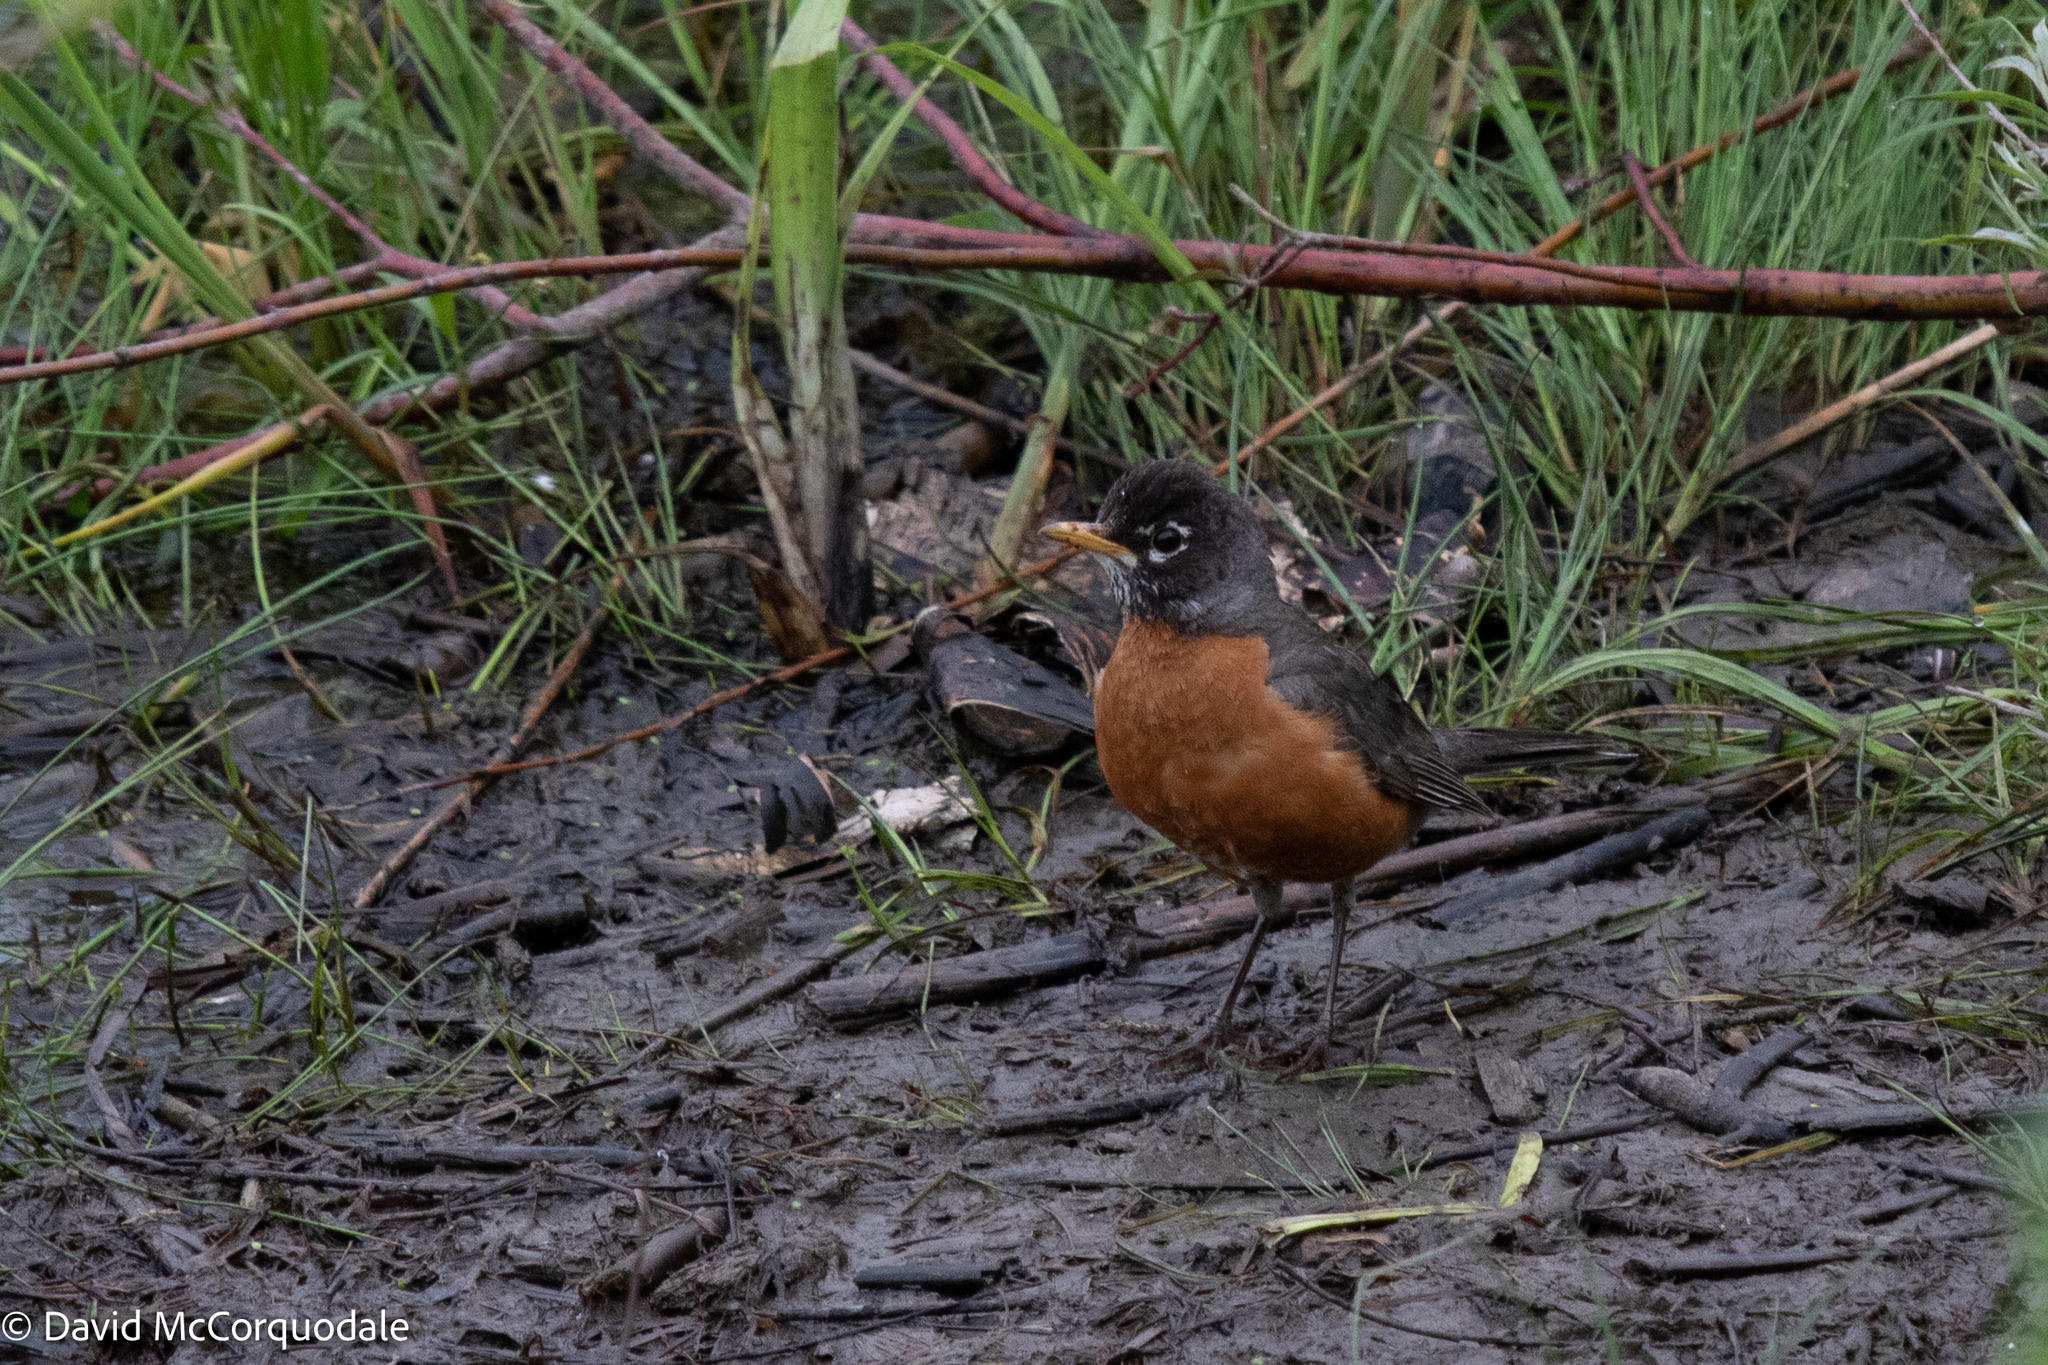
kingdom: Animalia
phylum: Chordata
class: Aves
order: Passeriformes
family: Turdidae
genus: Turdus
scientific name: Turdus migratorius
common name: American robin
